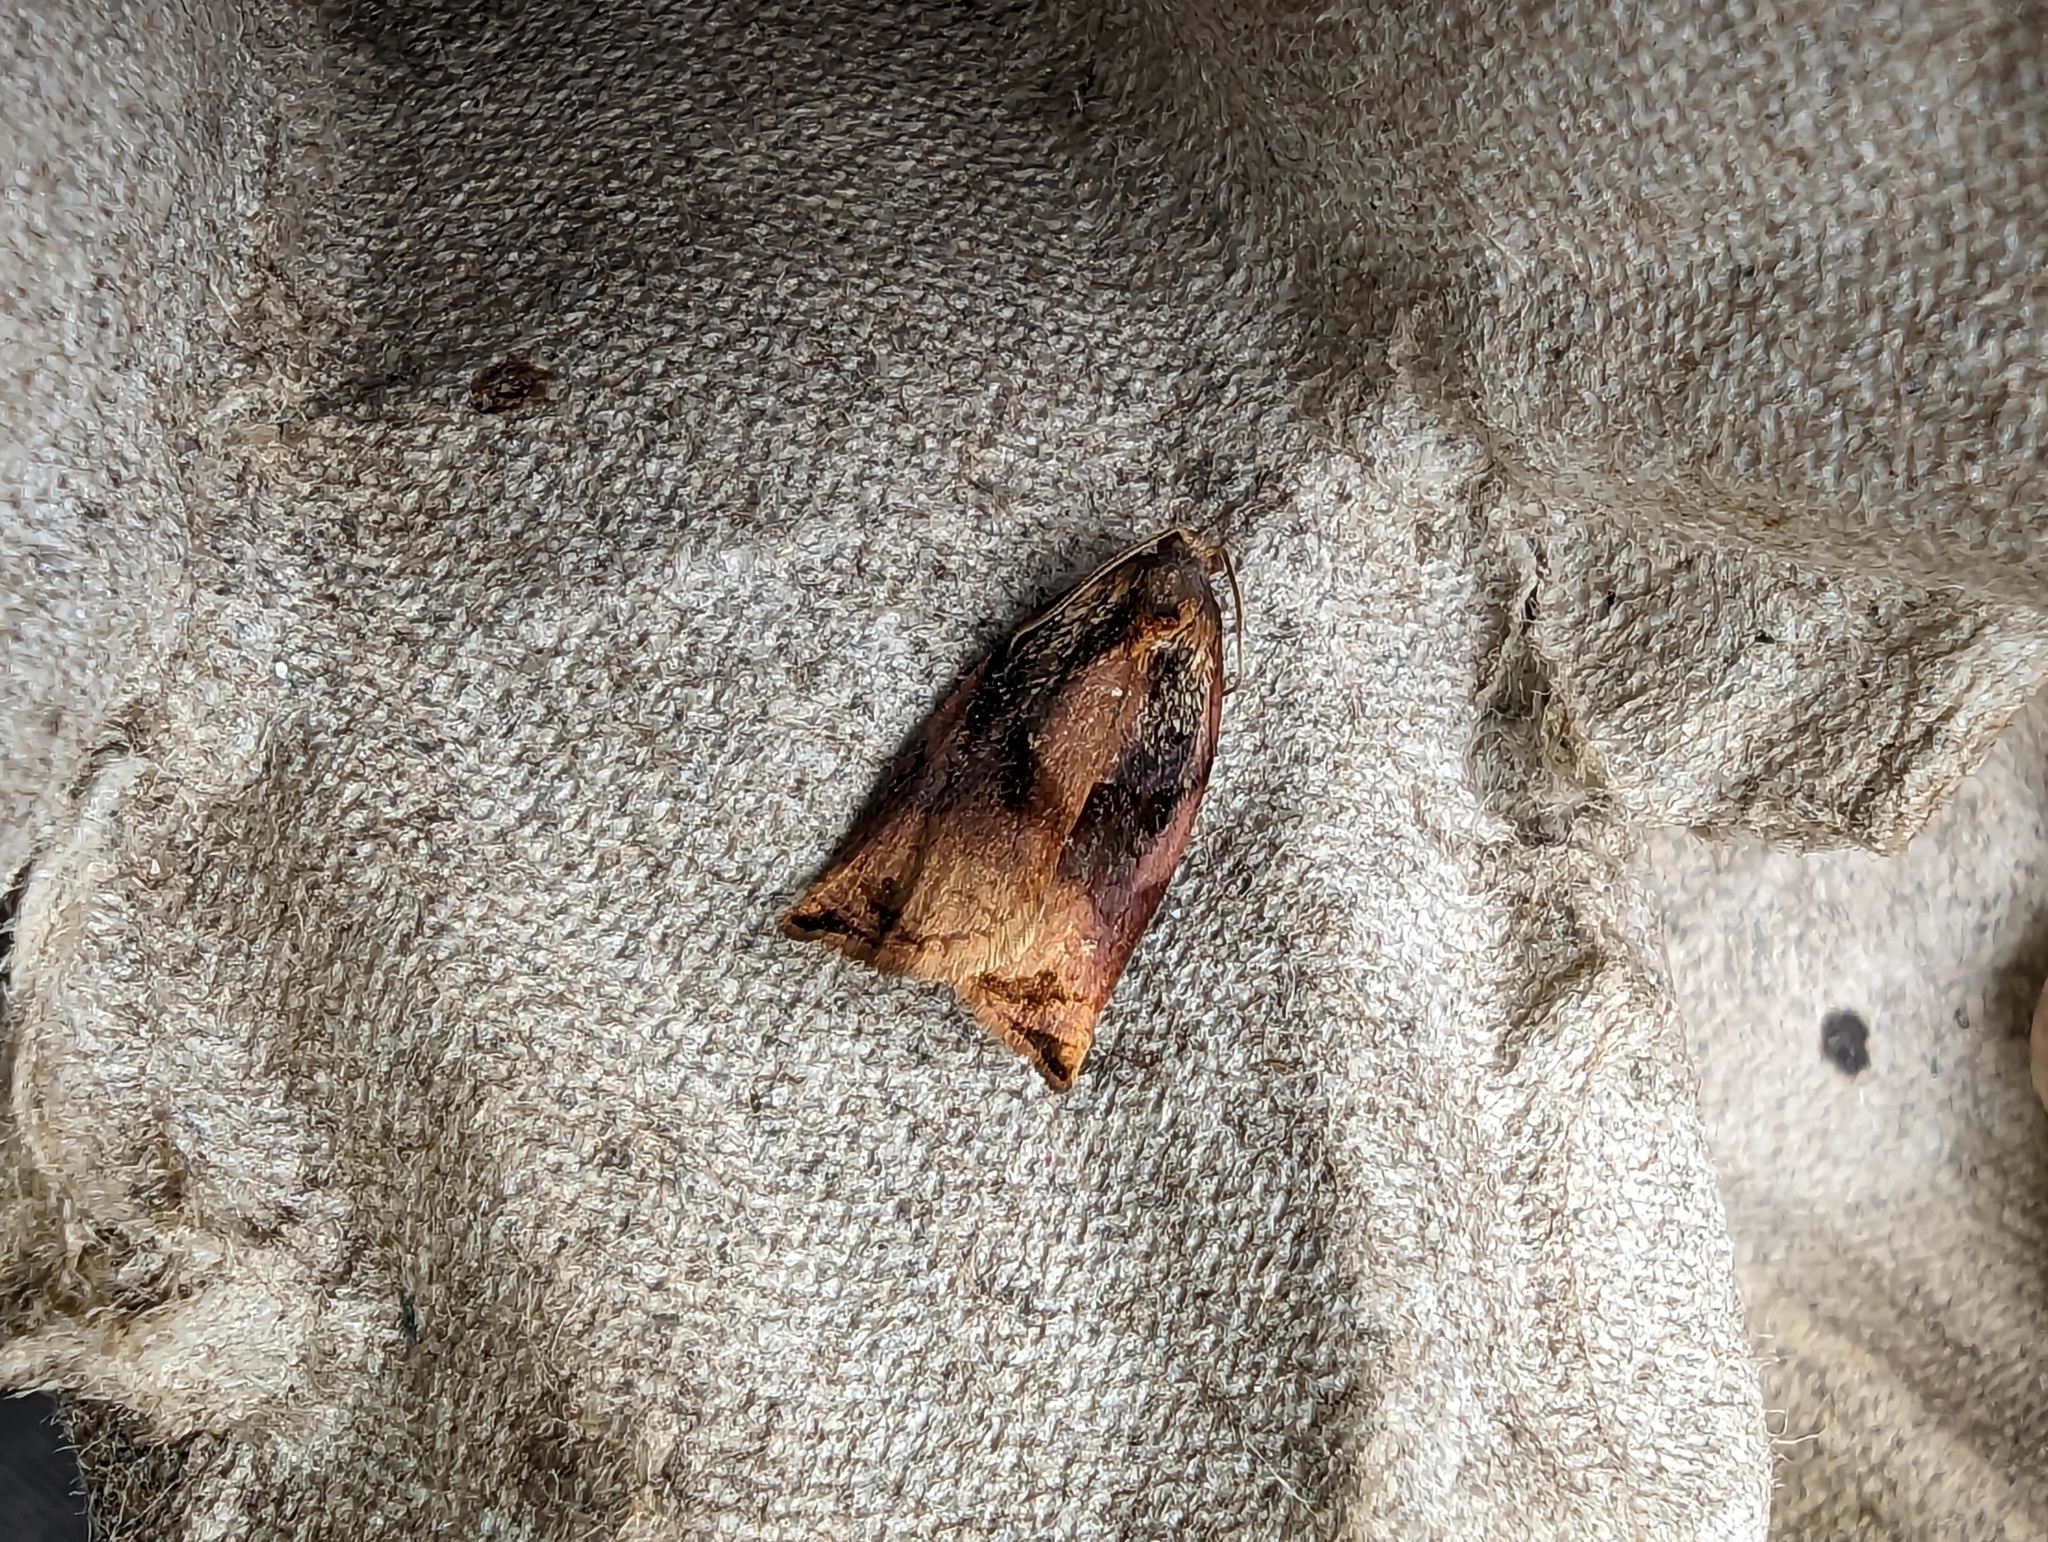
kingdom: Animalia
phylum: Arthropoda
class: Insecta
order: Lepidoptera
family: Tortricidae
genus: Archips
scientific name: Archips podana
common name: Large fruit-tree tortrix
